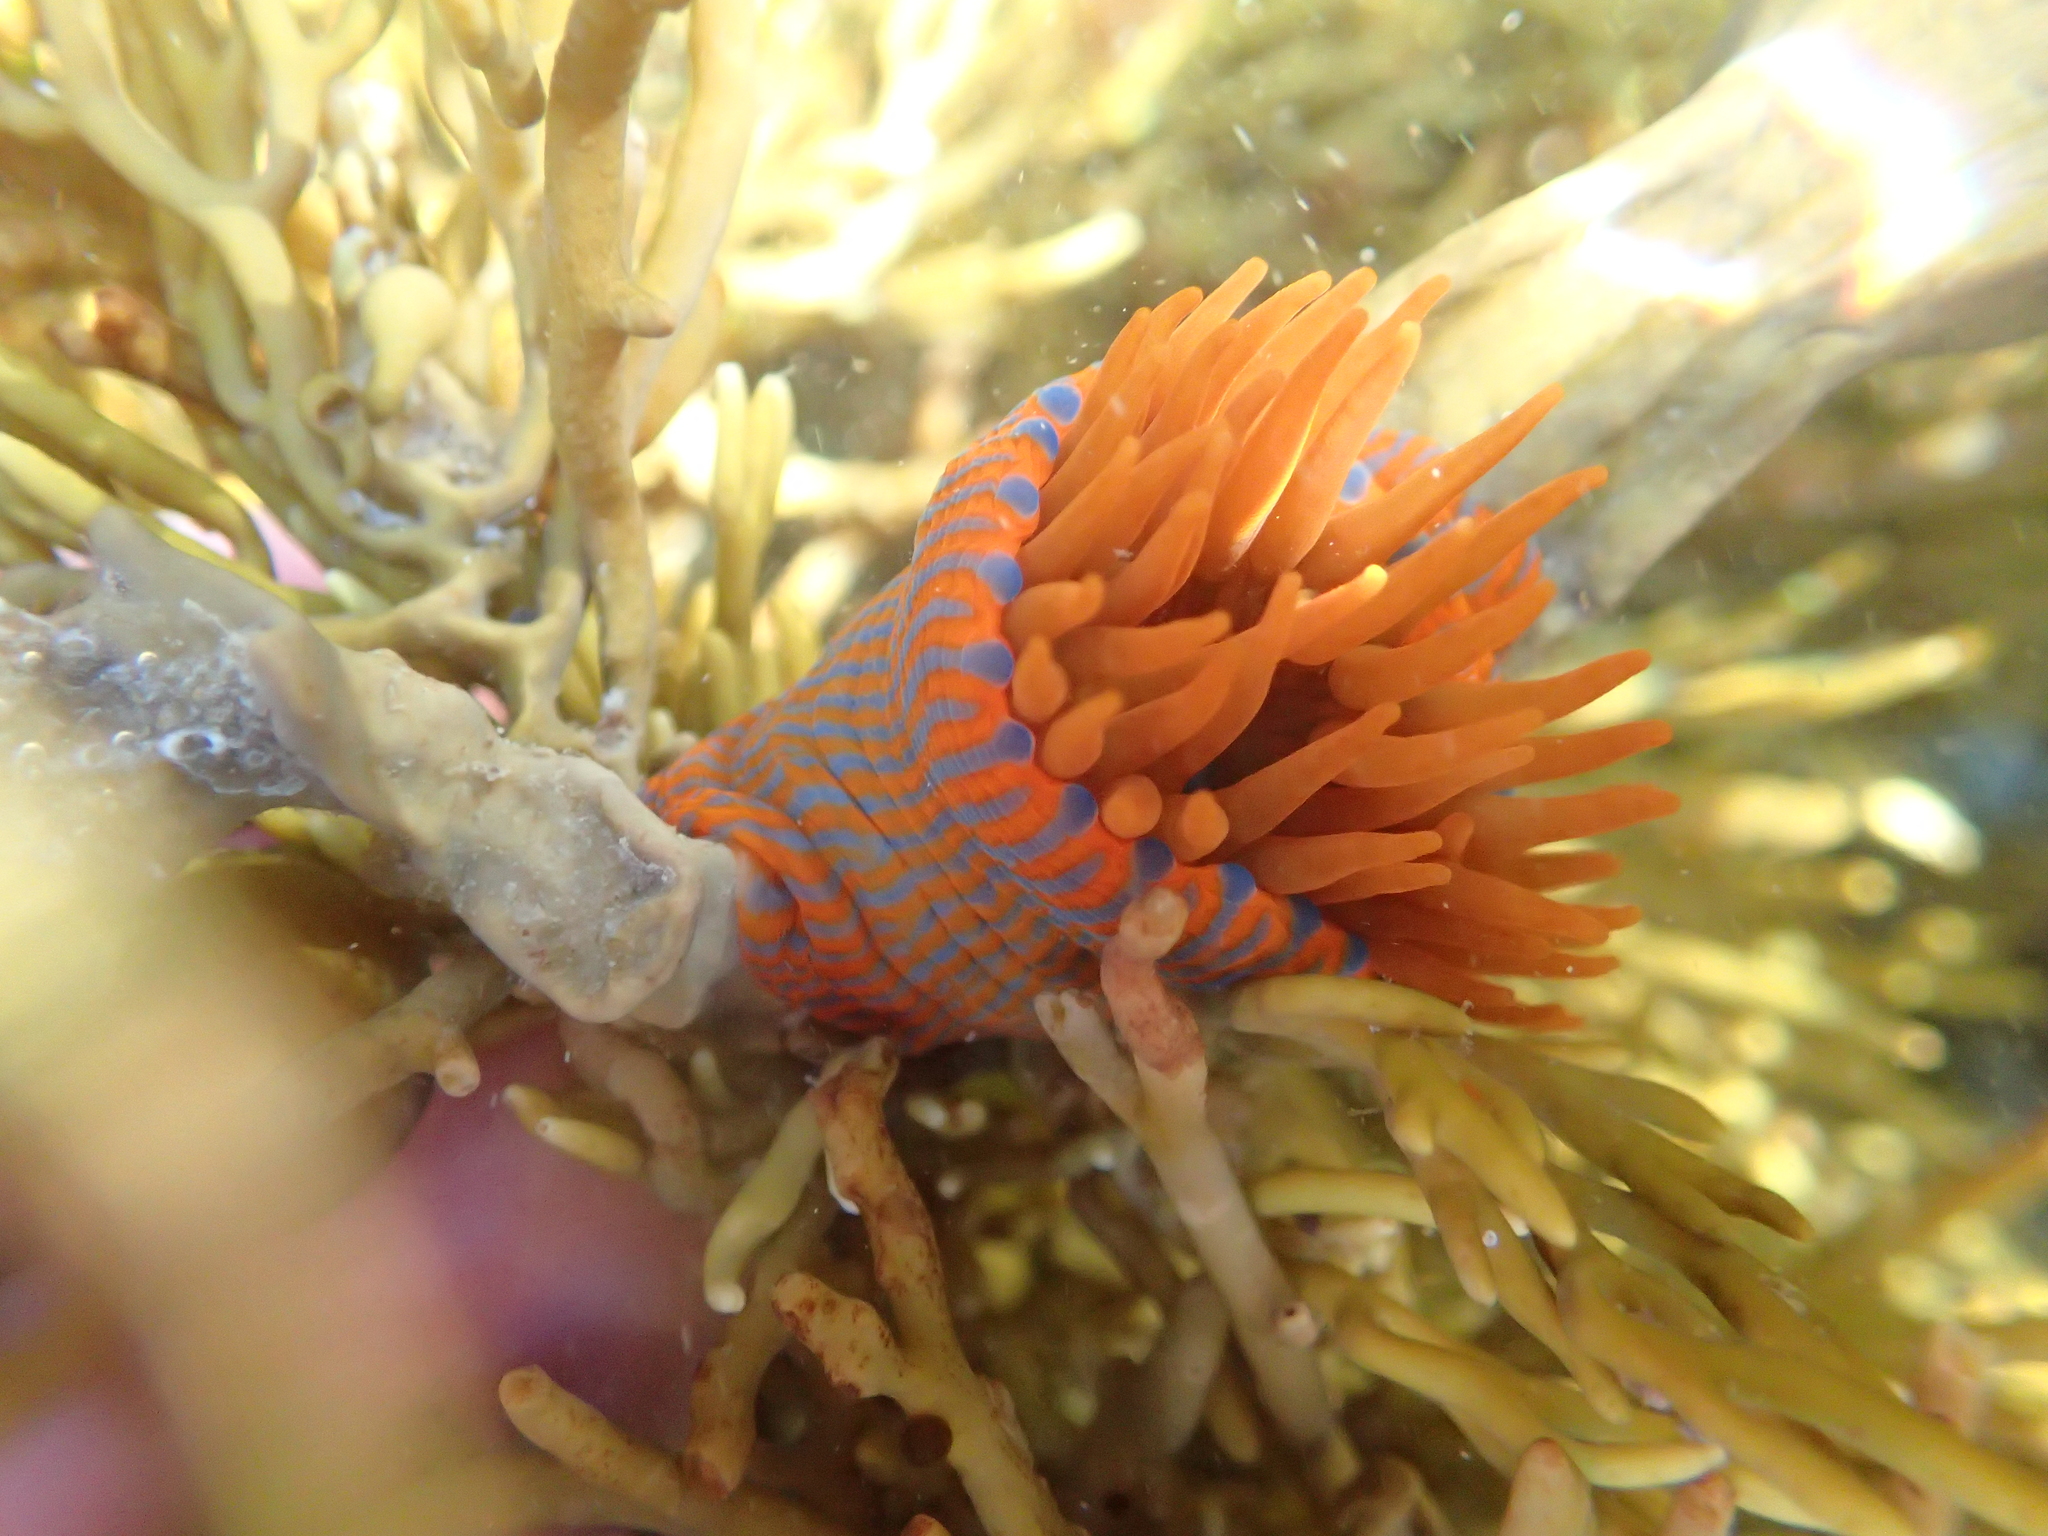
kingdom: Animalia
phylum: Cnidaria
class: Anthozoa
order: Actiniaria
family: Actiniidae
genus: Epiactis
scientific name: Epiactis
